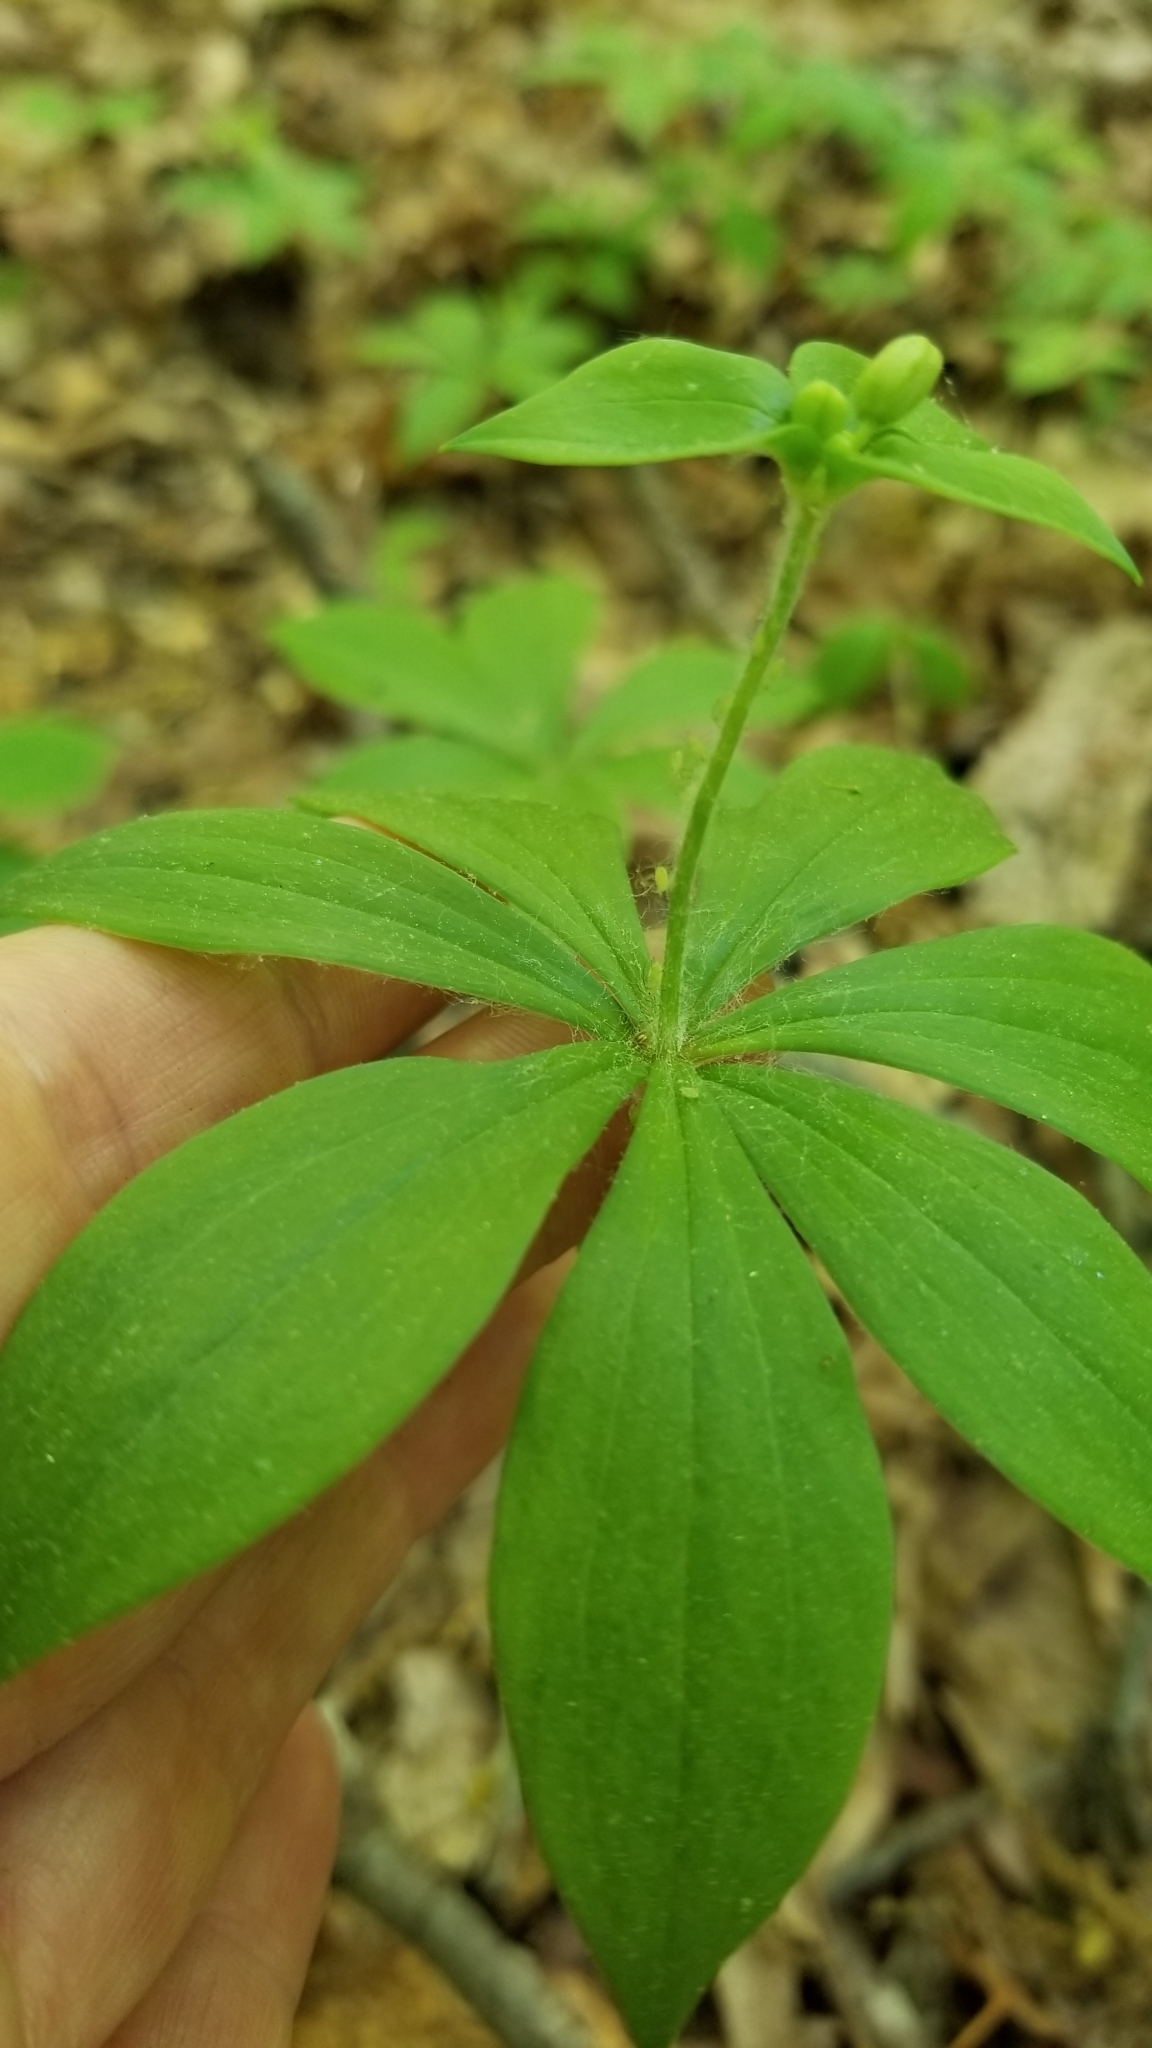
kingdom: Plantae
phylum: Tracheophyta
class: Liliopsida
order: Liliales
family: Liliaceae
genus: Medeola
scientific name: Medeola virginiana
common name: Indian cucumber-root
